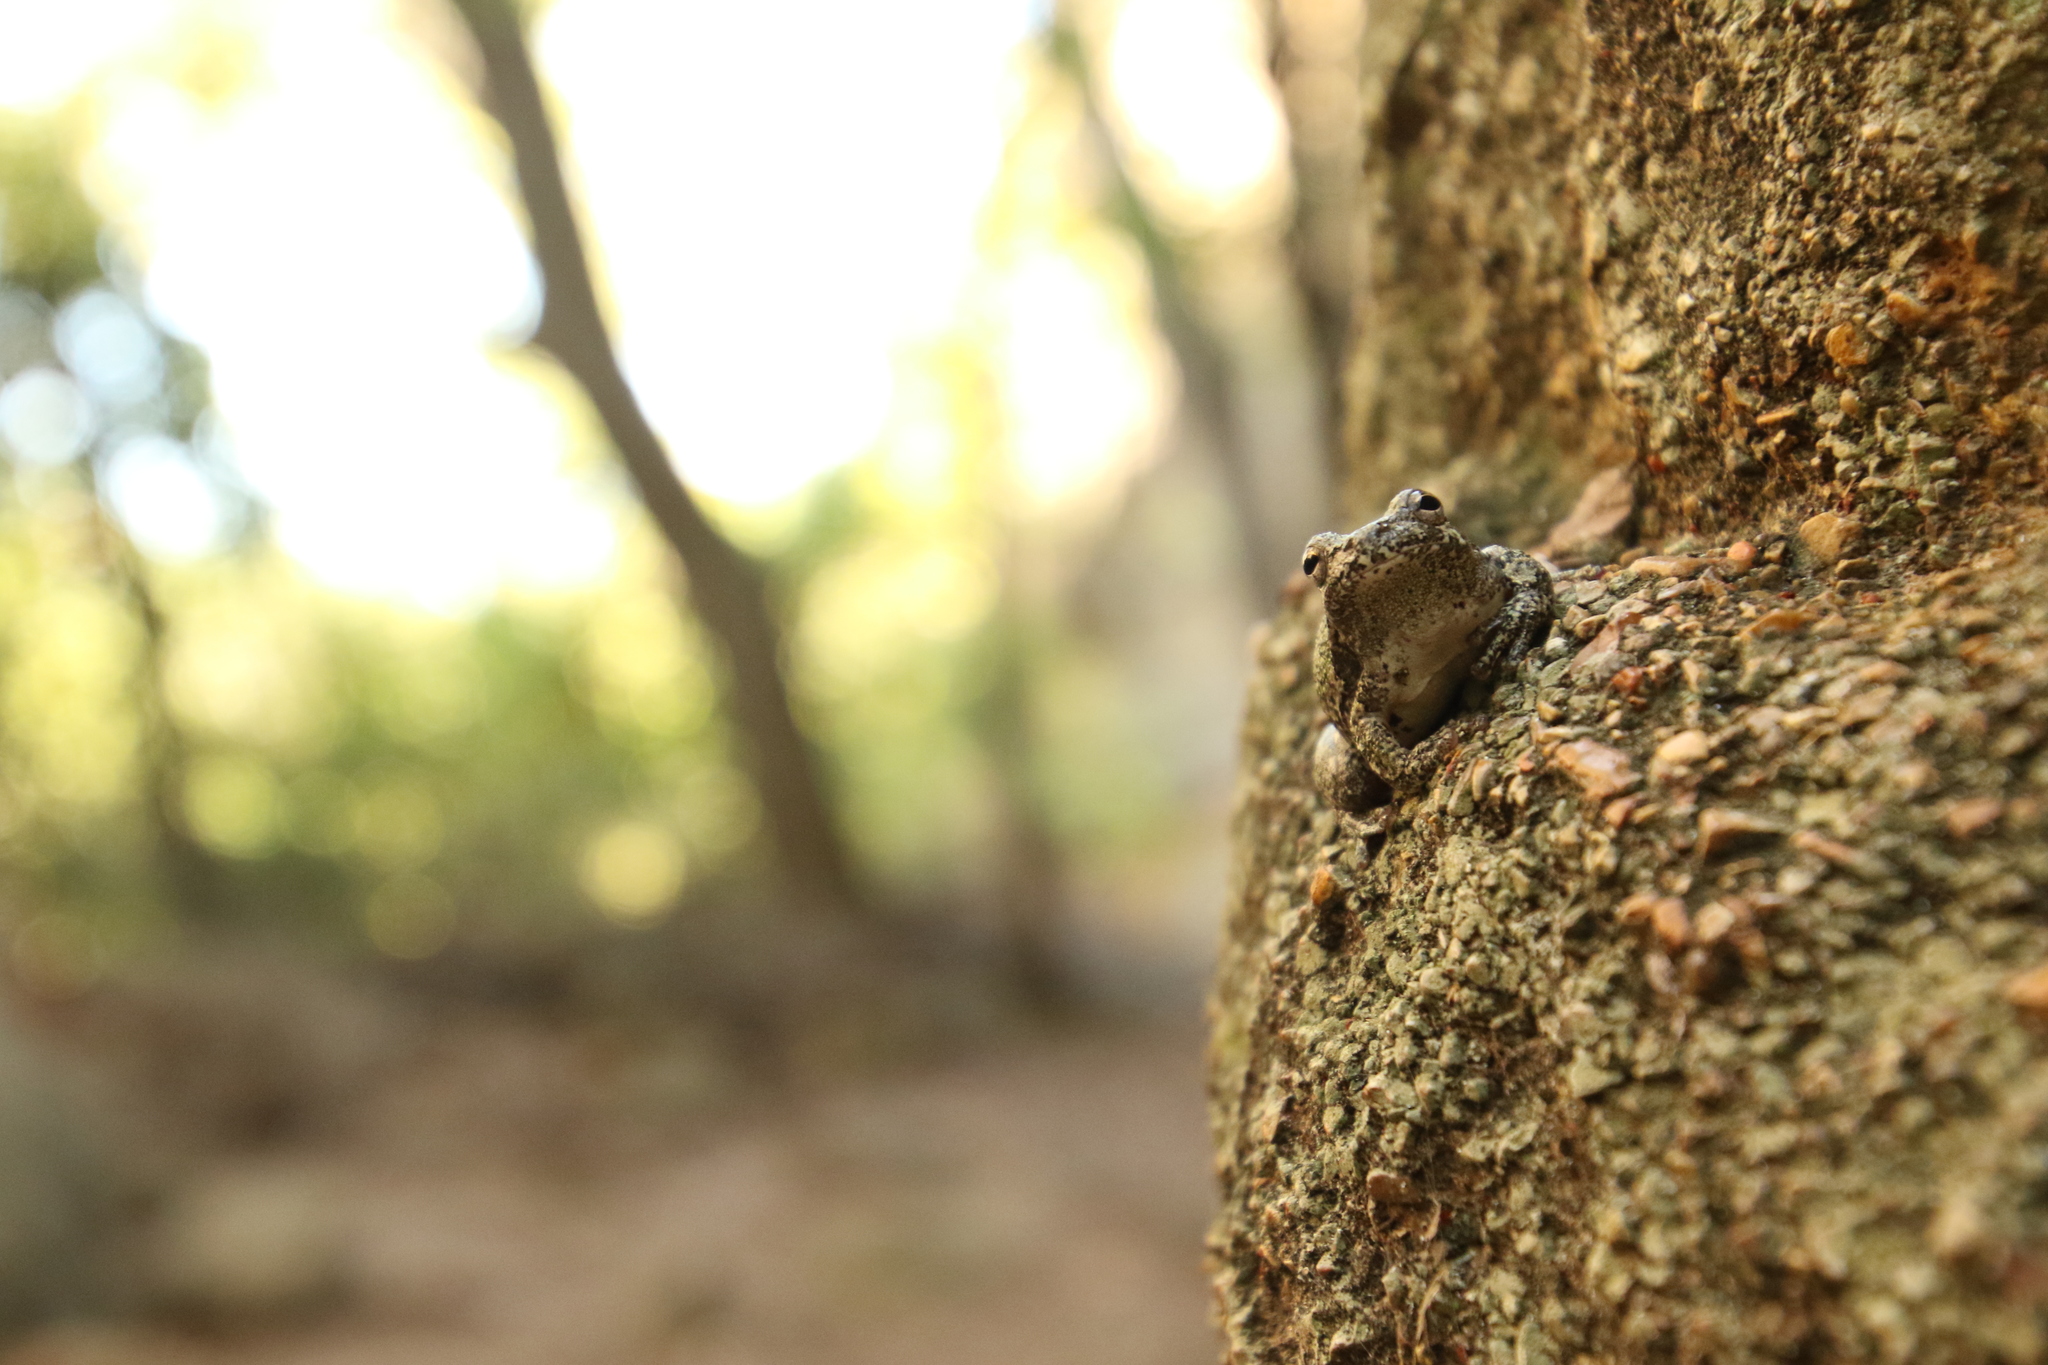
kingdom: Animalia
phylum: Chordata
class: Amphibia
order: Anura
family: Hylidae
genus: Hyla
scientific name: Hyla
